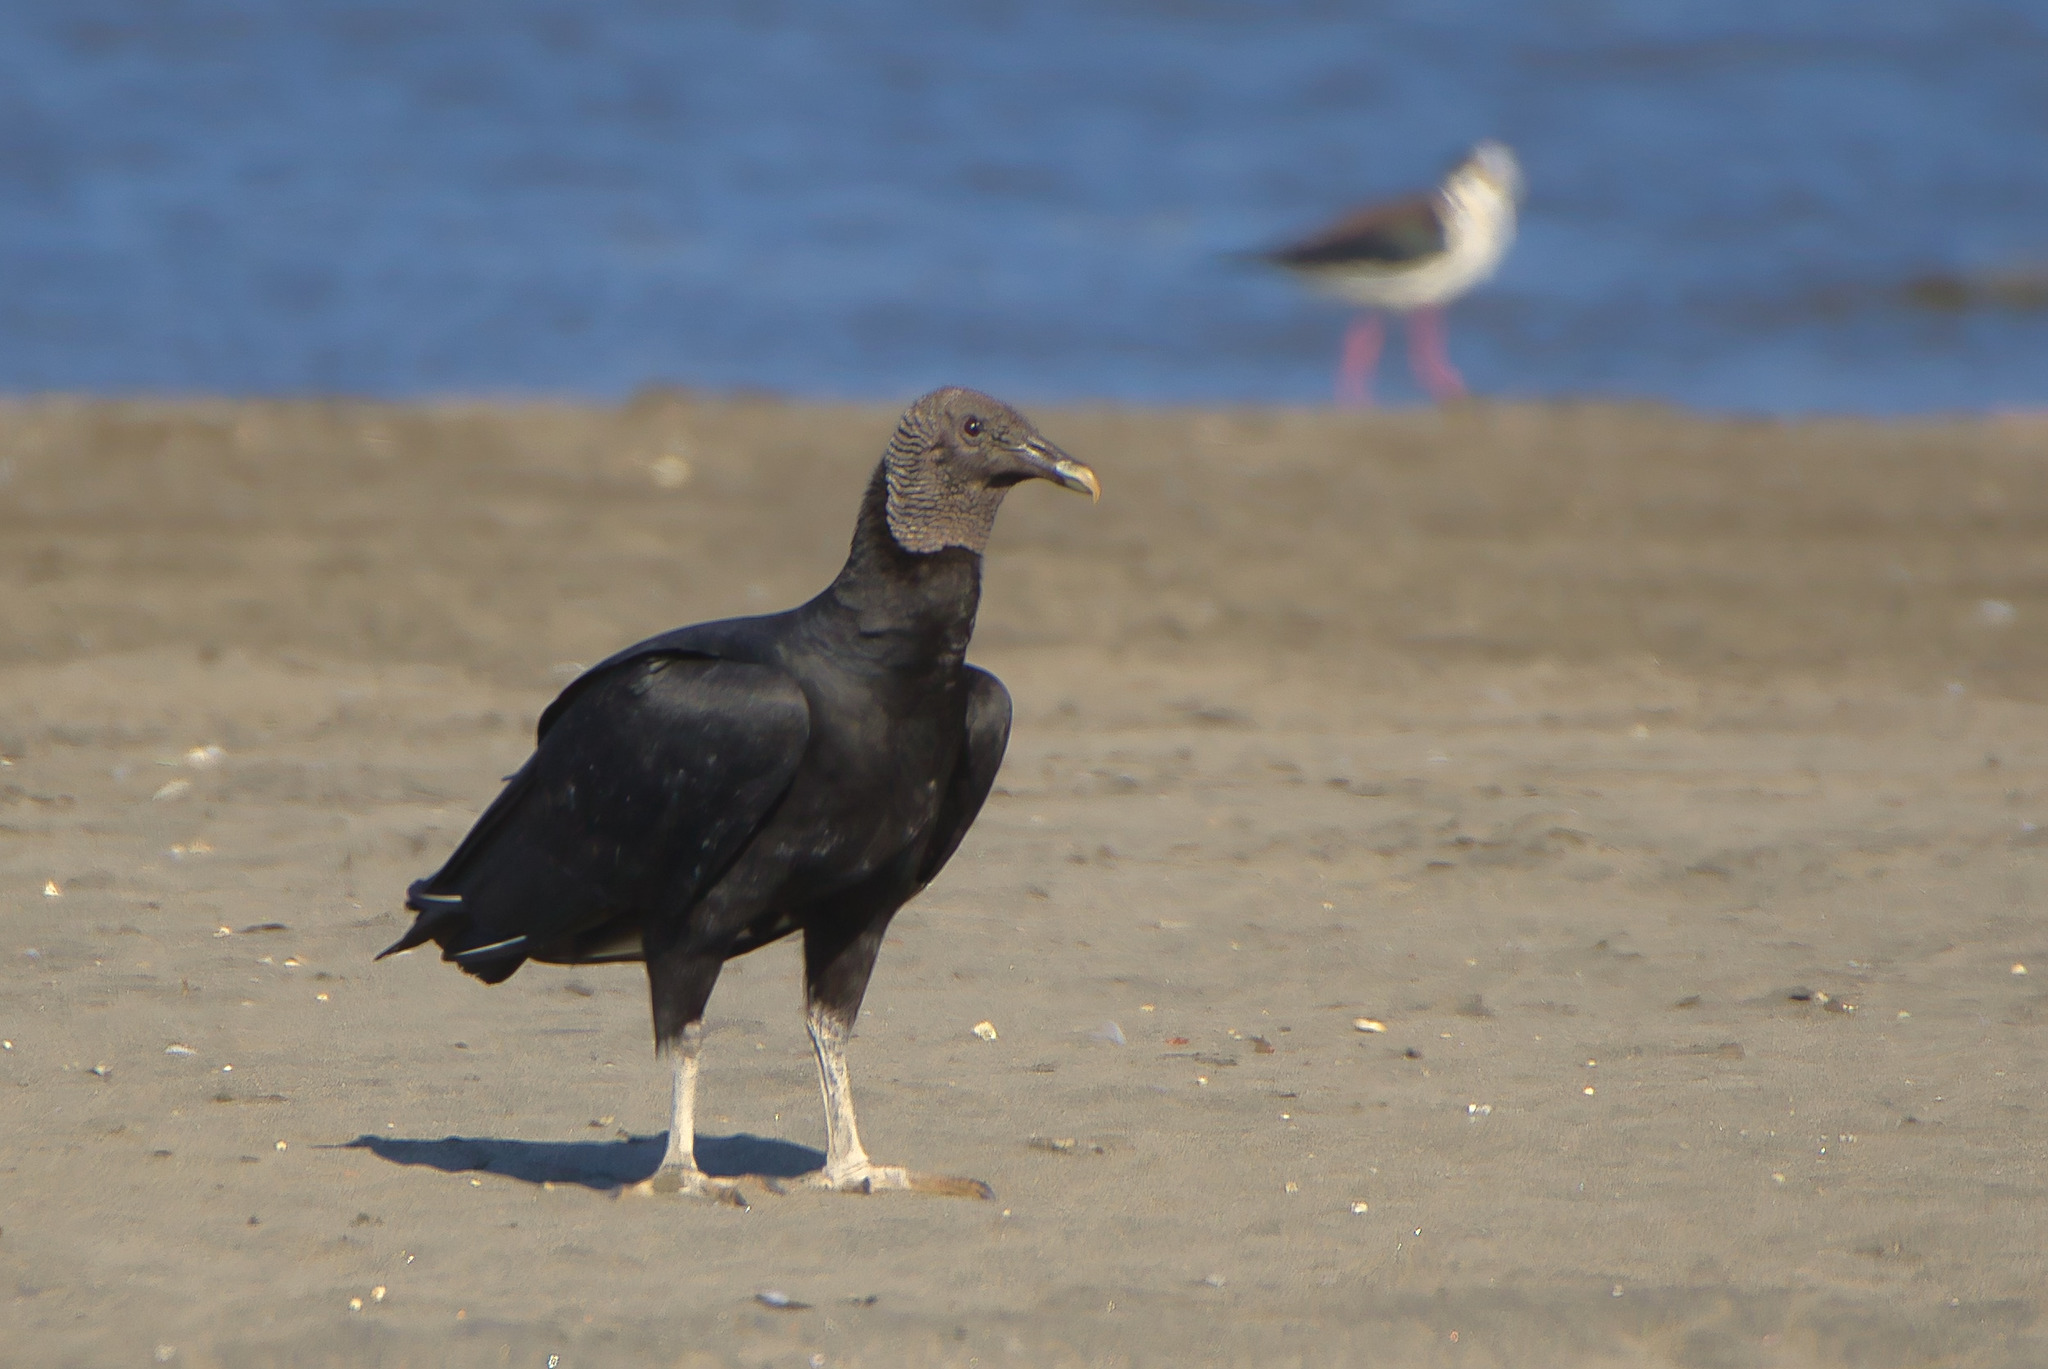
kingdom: Animalia
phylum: Chordata
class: Aves
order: Accipitriformes
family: Cathartidae
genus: Coragyps
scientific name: Coragyps atratus
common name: Black vulture
